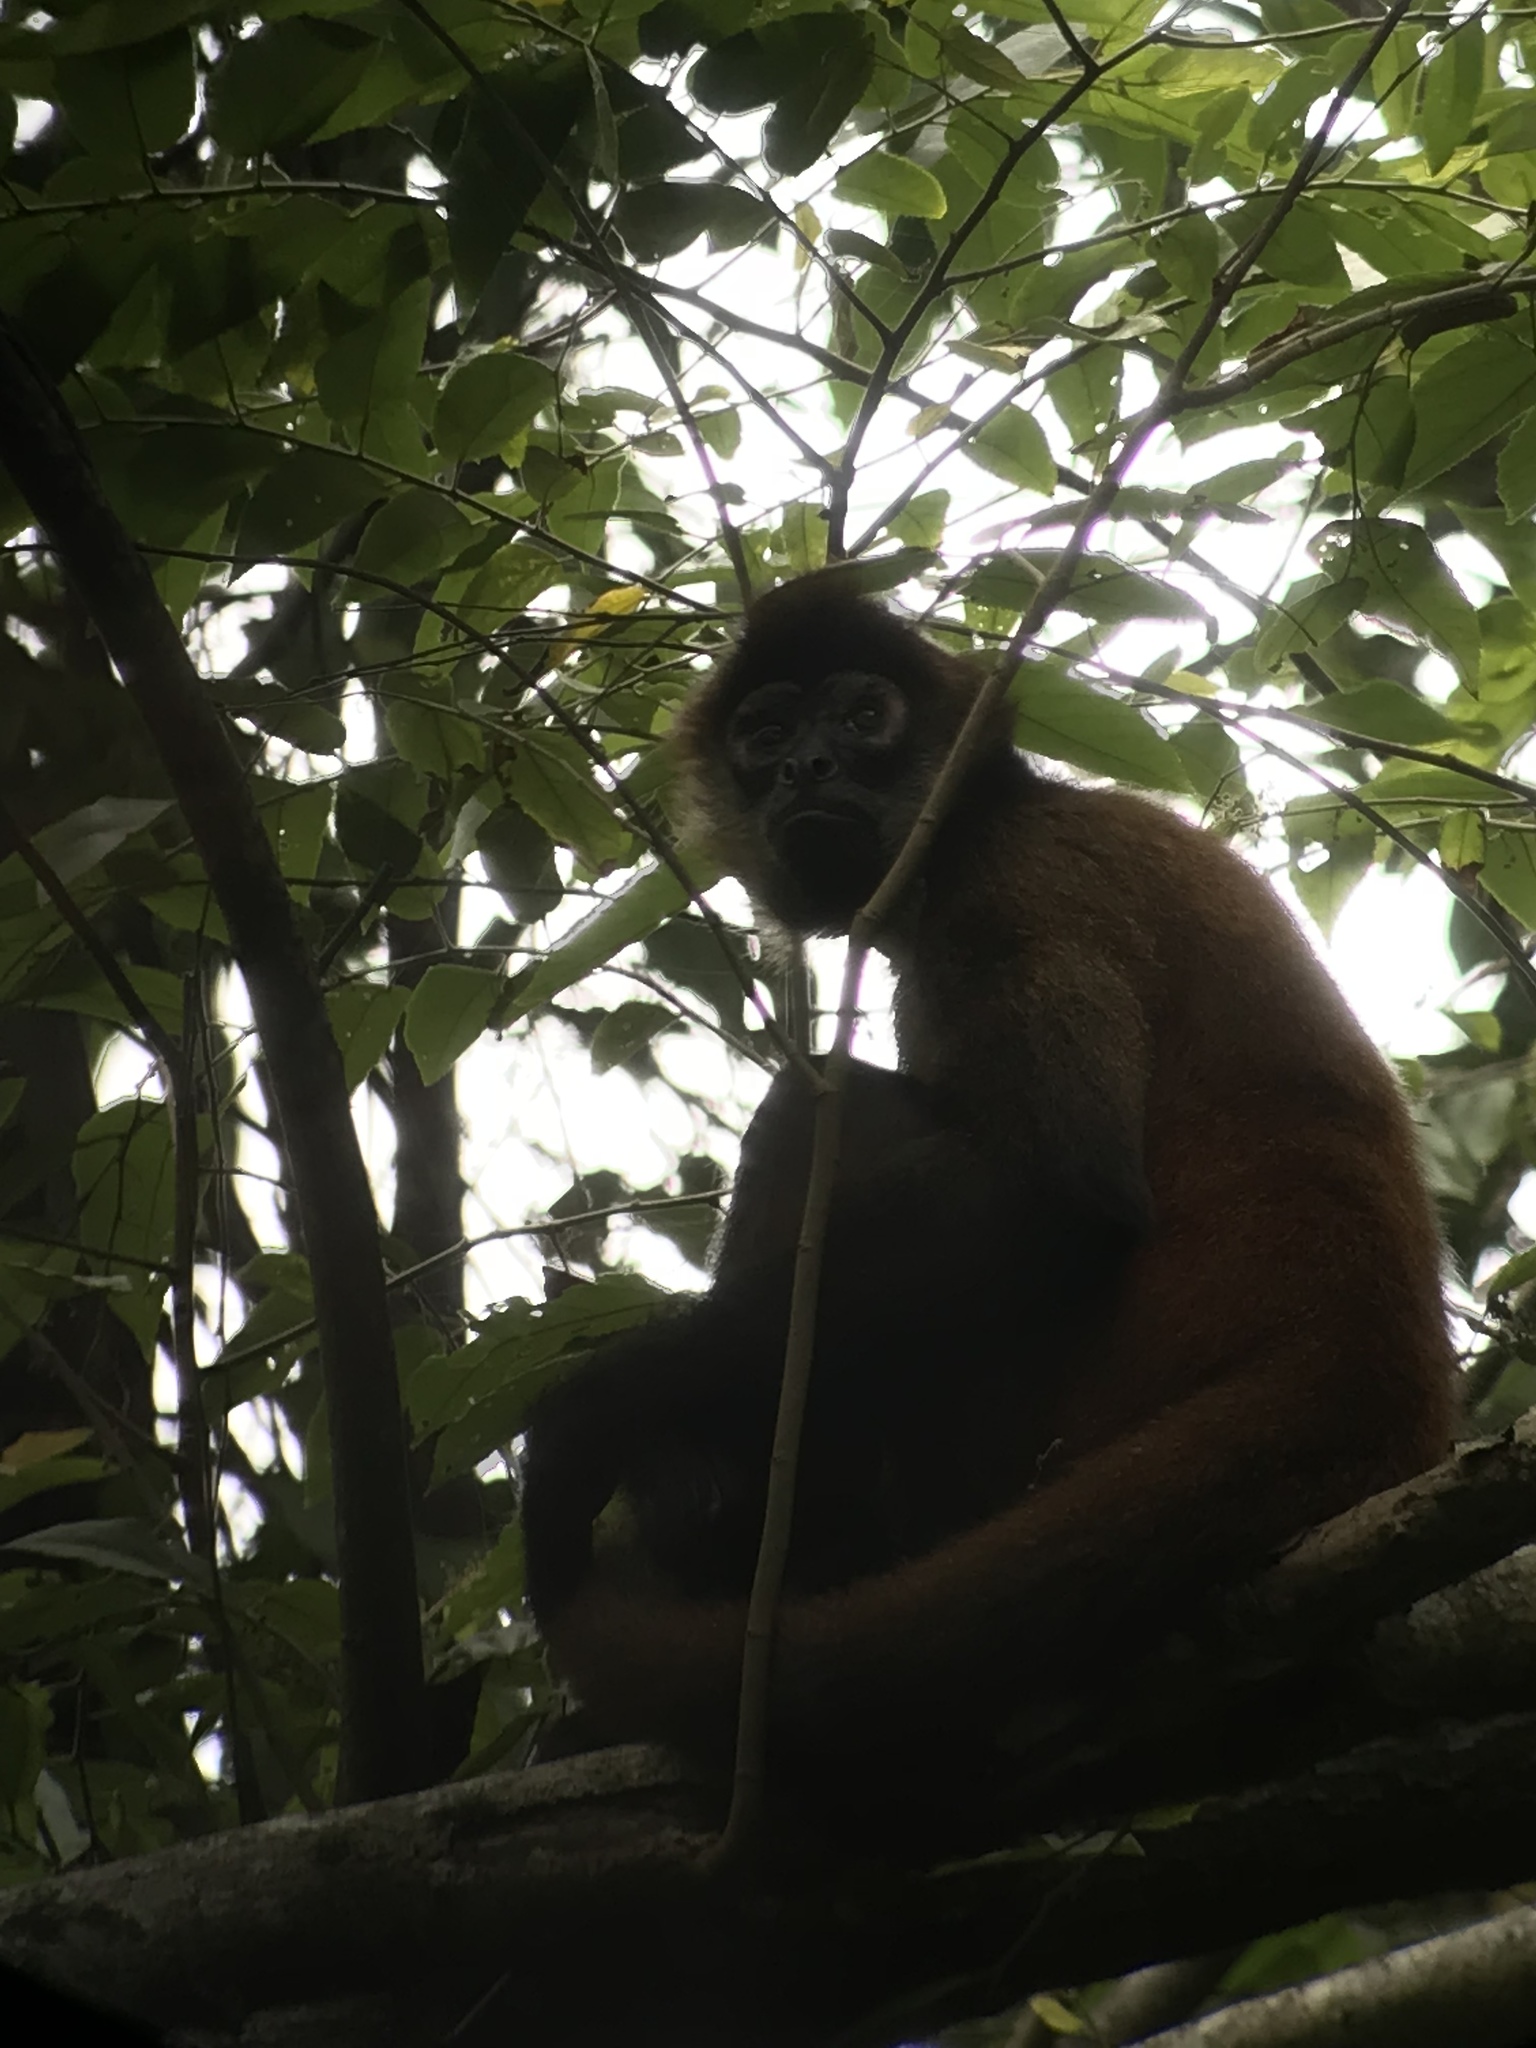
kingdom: Animalia
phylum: Chordata
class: Mammalia
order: Primates
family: Atelidae
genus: Ateles
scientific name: Ateles geoffroyi
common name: Black-handed spider monkey
